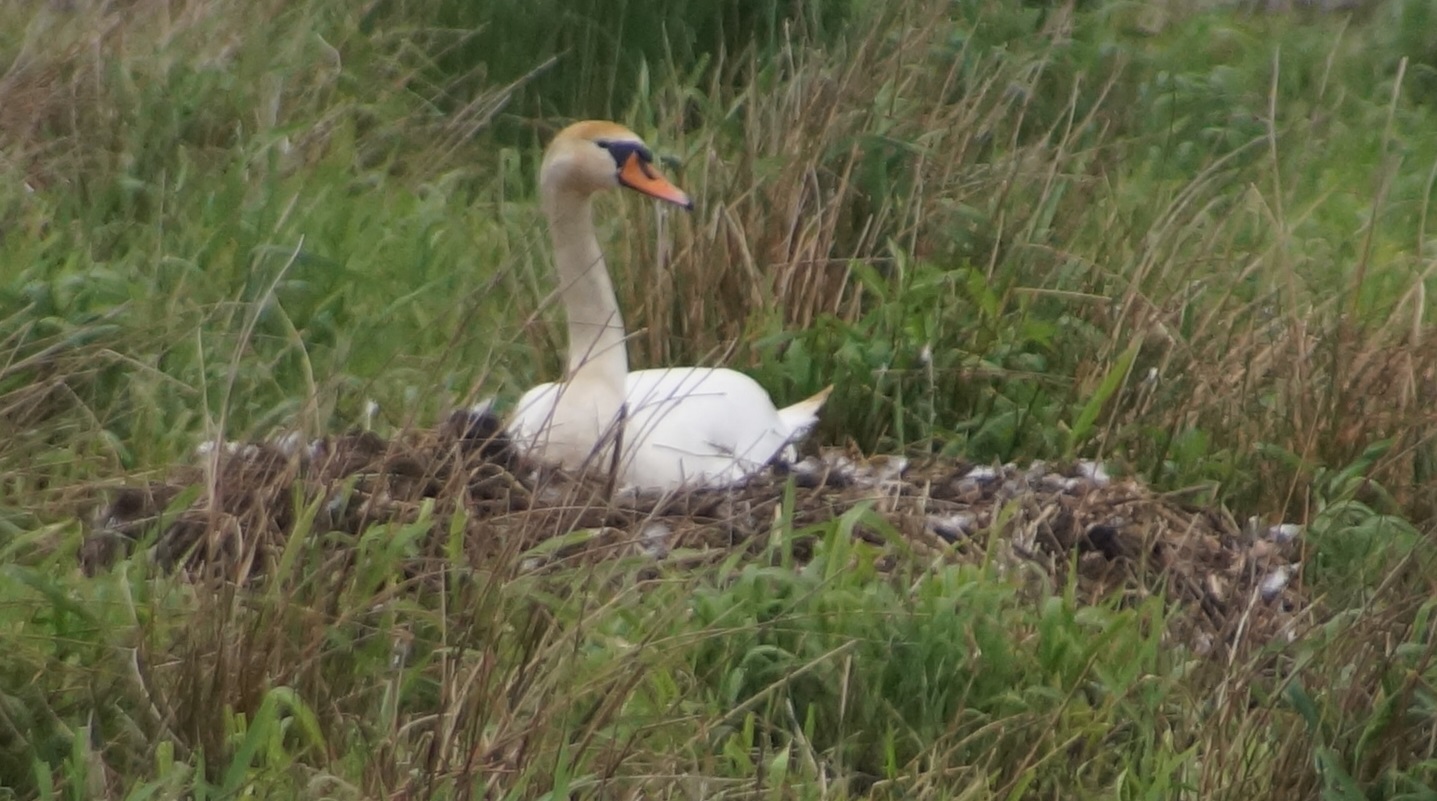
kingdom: Animalia
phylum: Chordata
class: Aves
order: Anseriformes
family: Anatidae
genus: Cygnus
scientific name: Cygnus olor
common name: Mute swan
